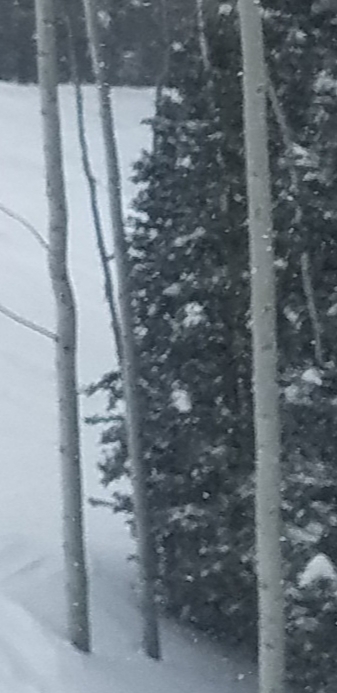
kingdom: Plantae
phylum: Tracheophyta
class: Magnoliopsida
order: Malpighiales
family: Salicaceae
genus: Populus
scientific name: Populus tremuloides
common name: Quaking aspen
